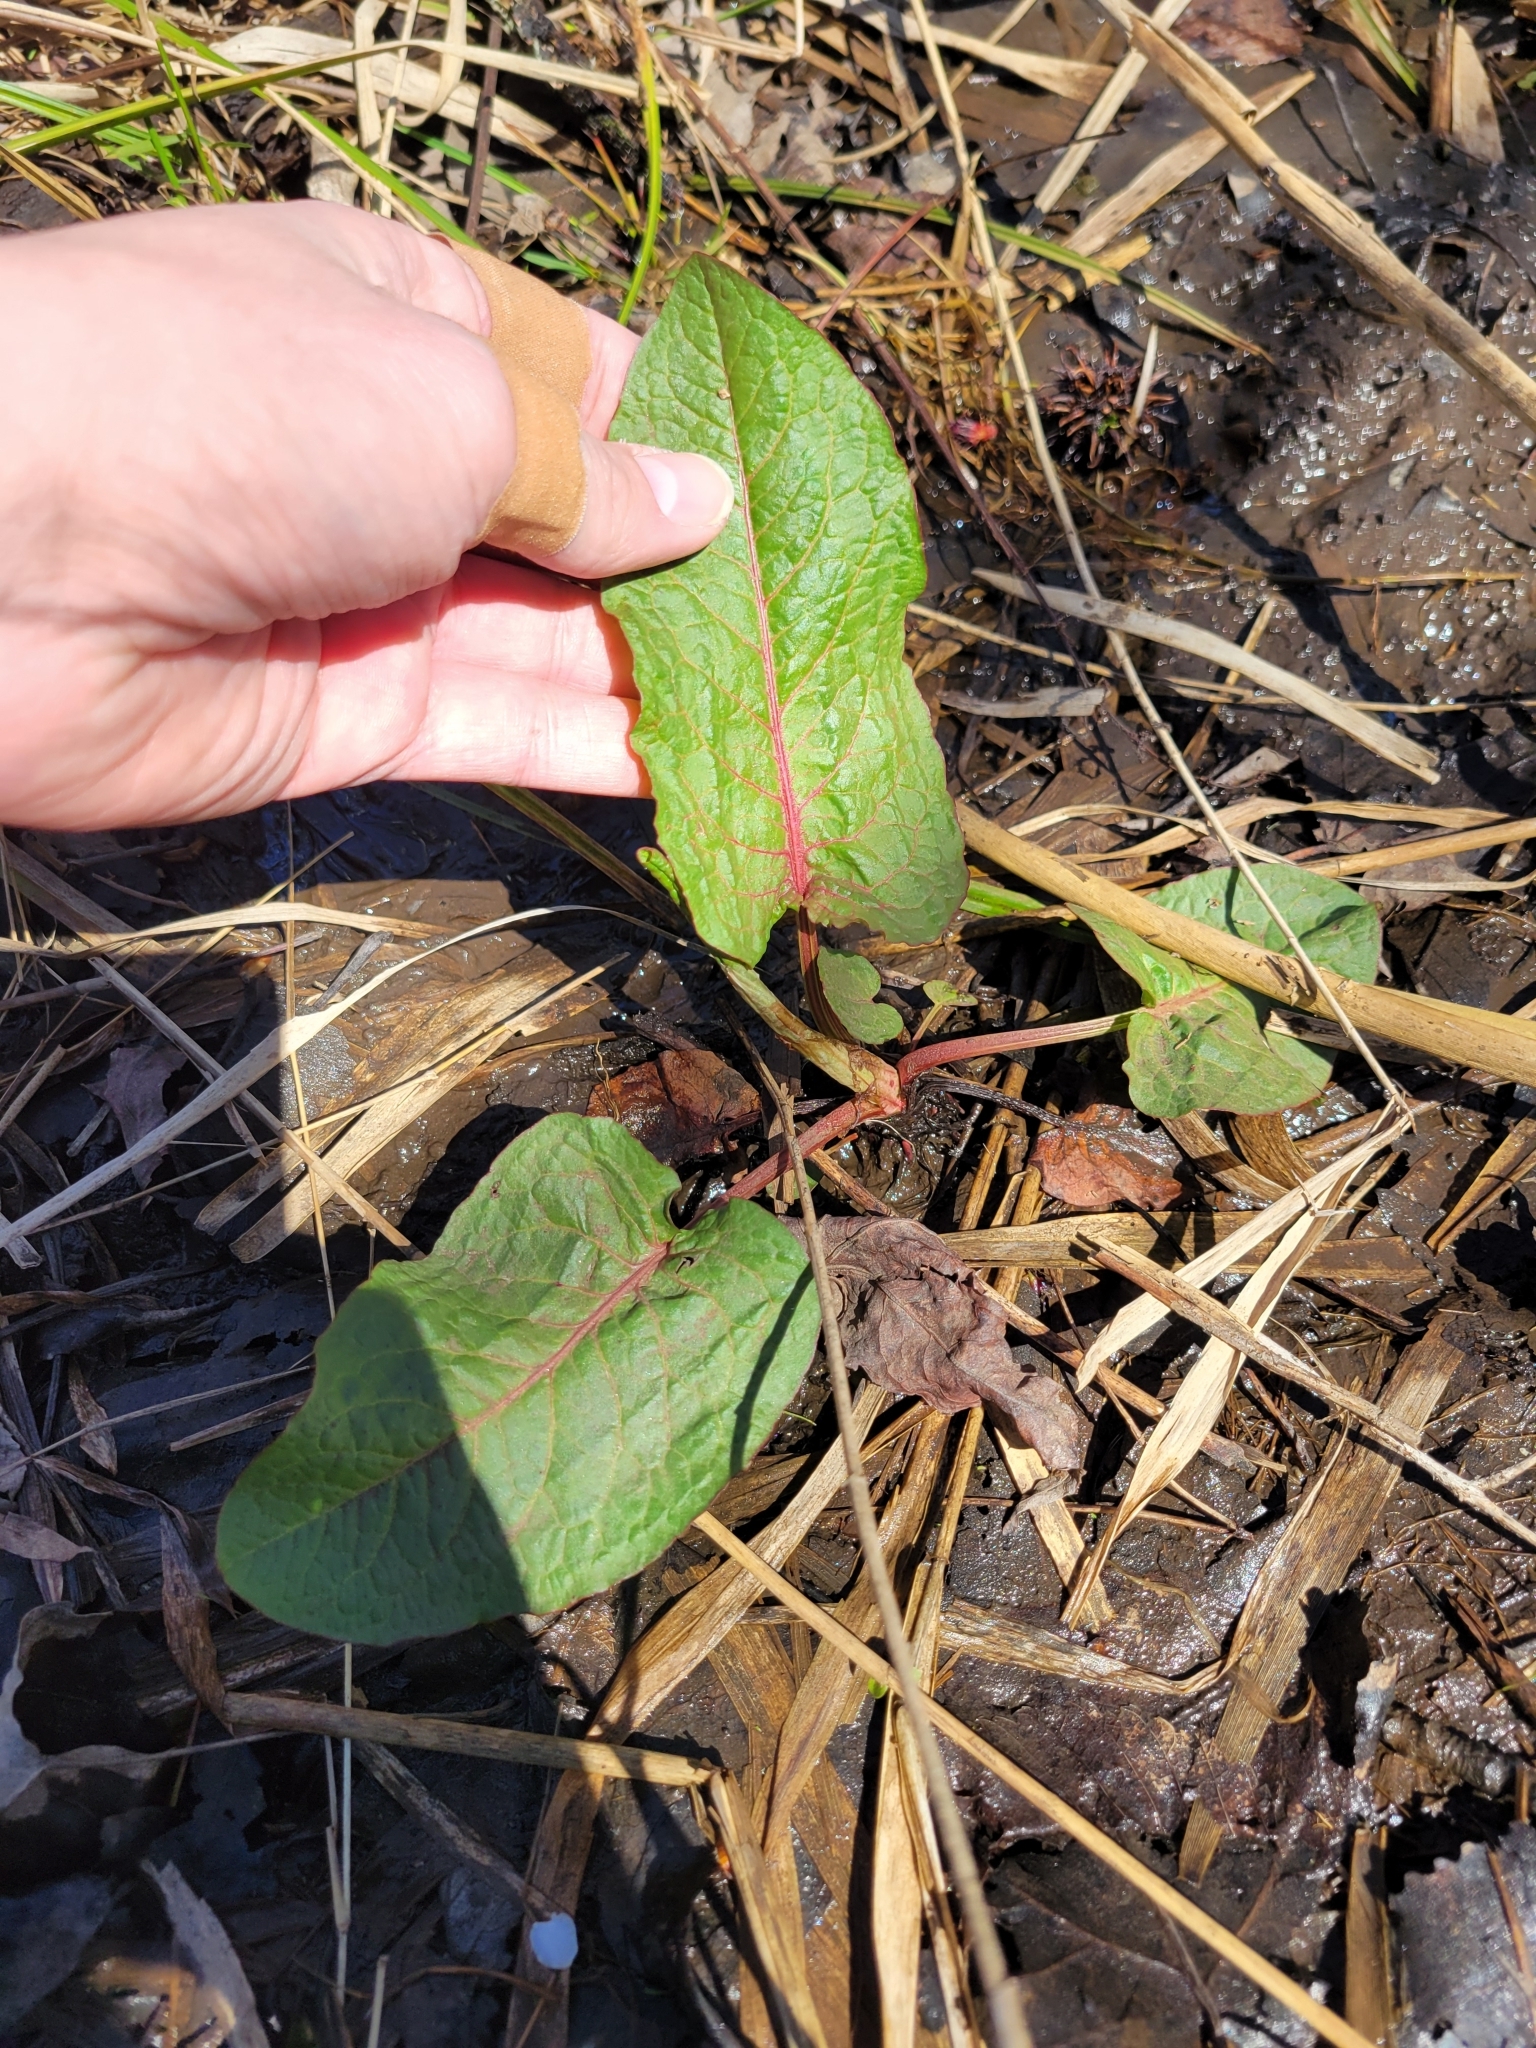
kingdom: Plantae
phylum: Tracheophyta
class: Magnoliopsida
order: Caryophyllales
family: Polygonaceae
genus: Rumex
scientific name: Rumex obtusifolius
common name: Bitter dock
